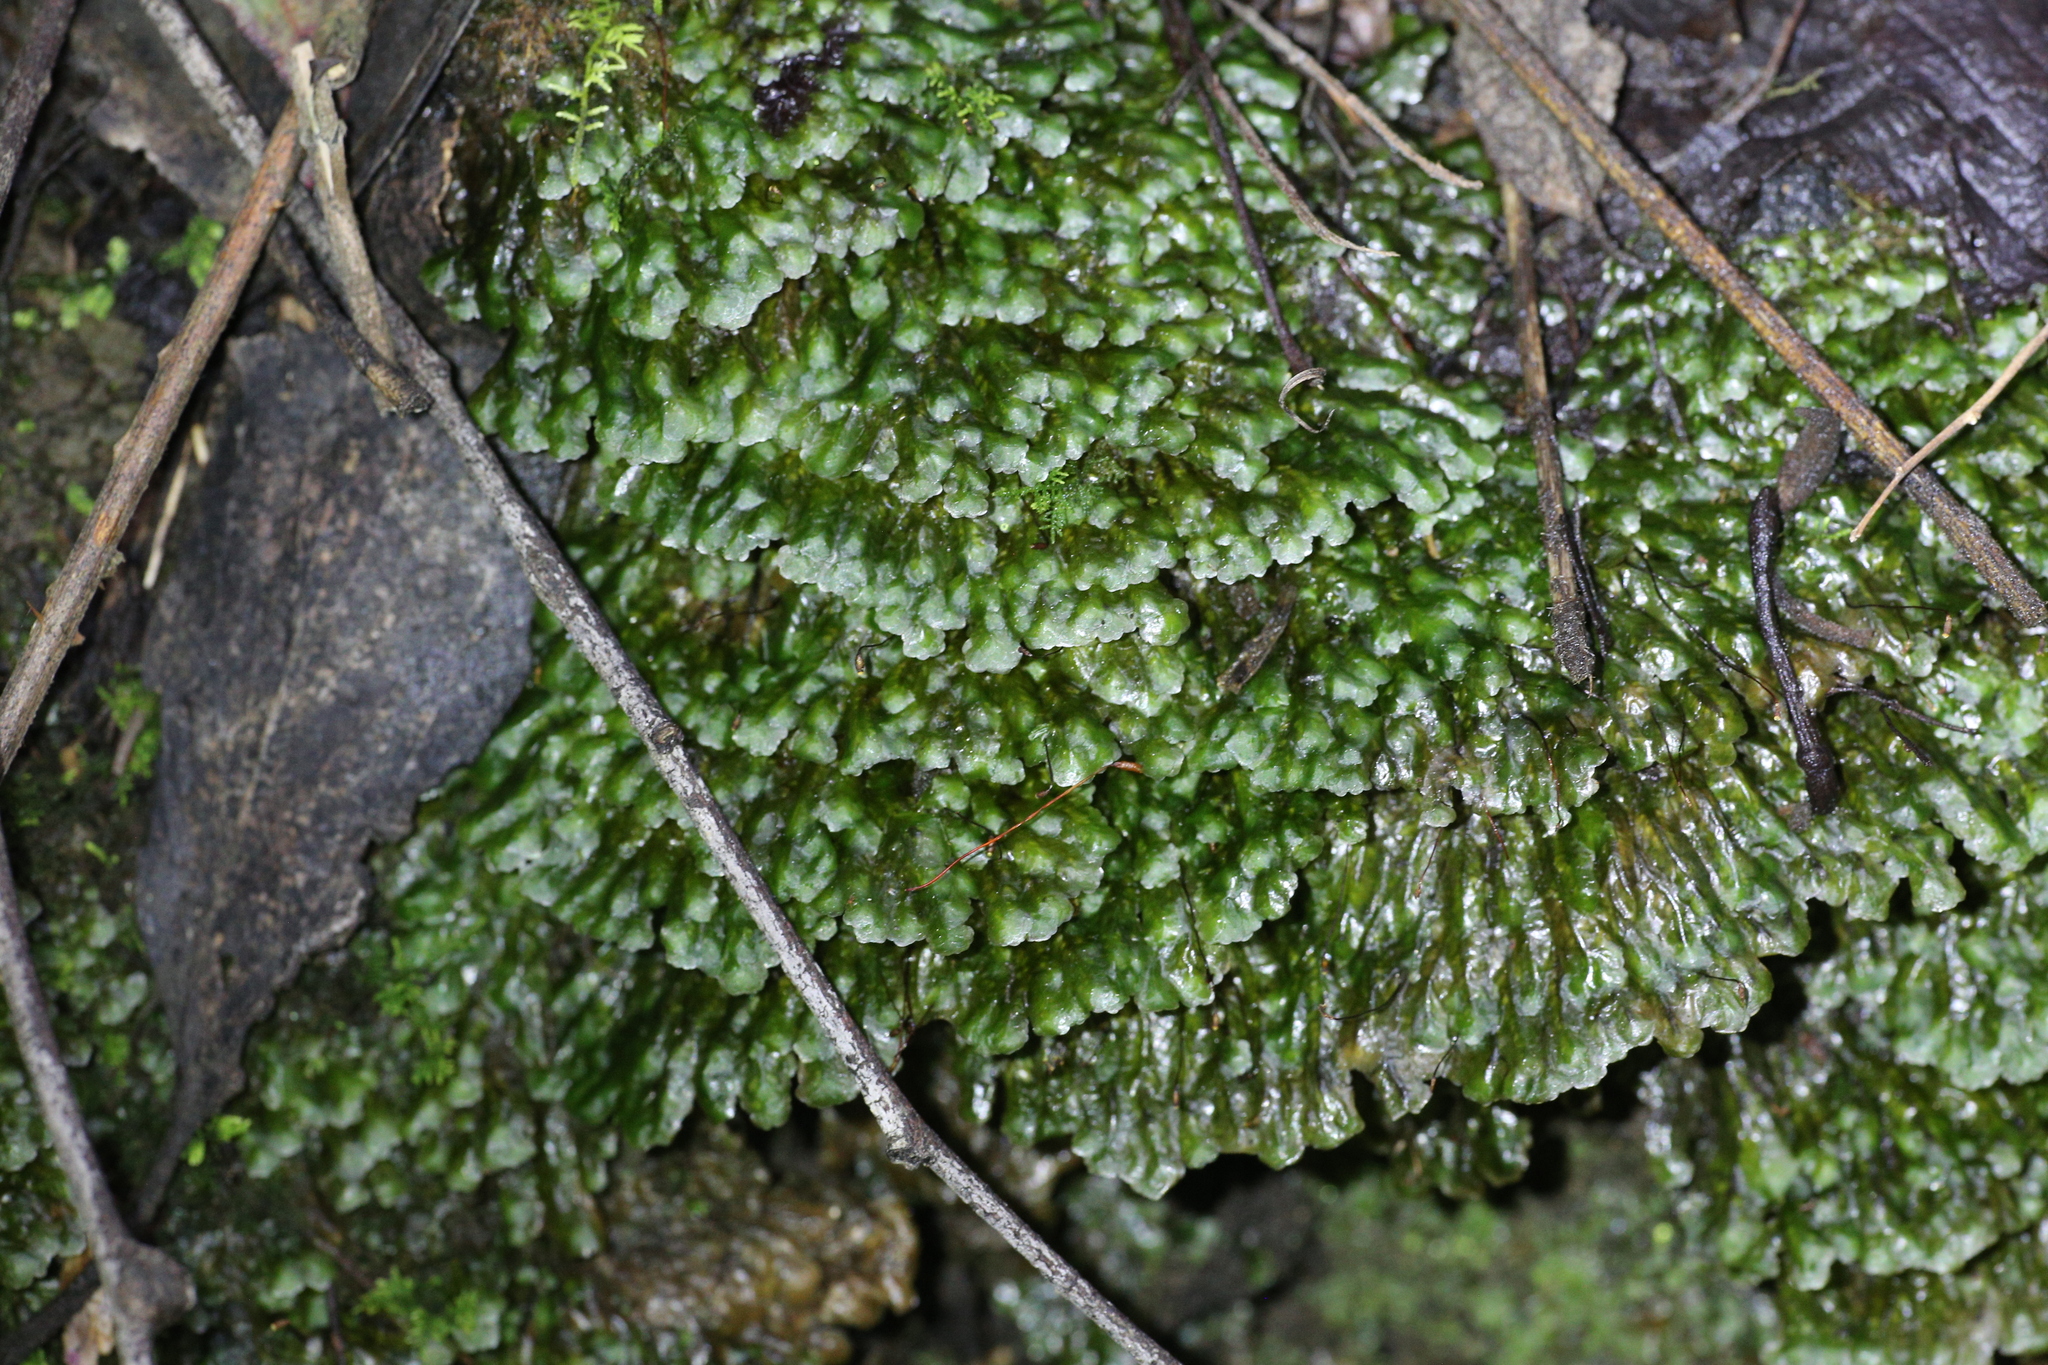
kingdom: Plantae
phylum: Bryophyta
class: Bryopsida
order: Hookeriales
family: Daltoniaceae
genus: Achrophyllum
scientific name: Achrophyllum dentatum
